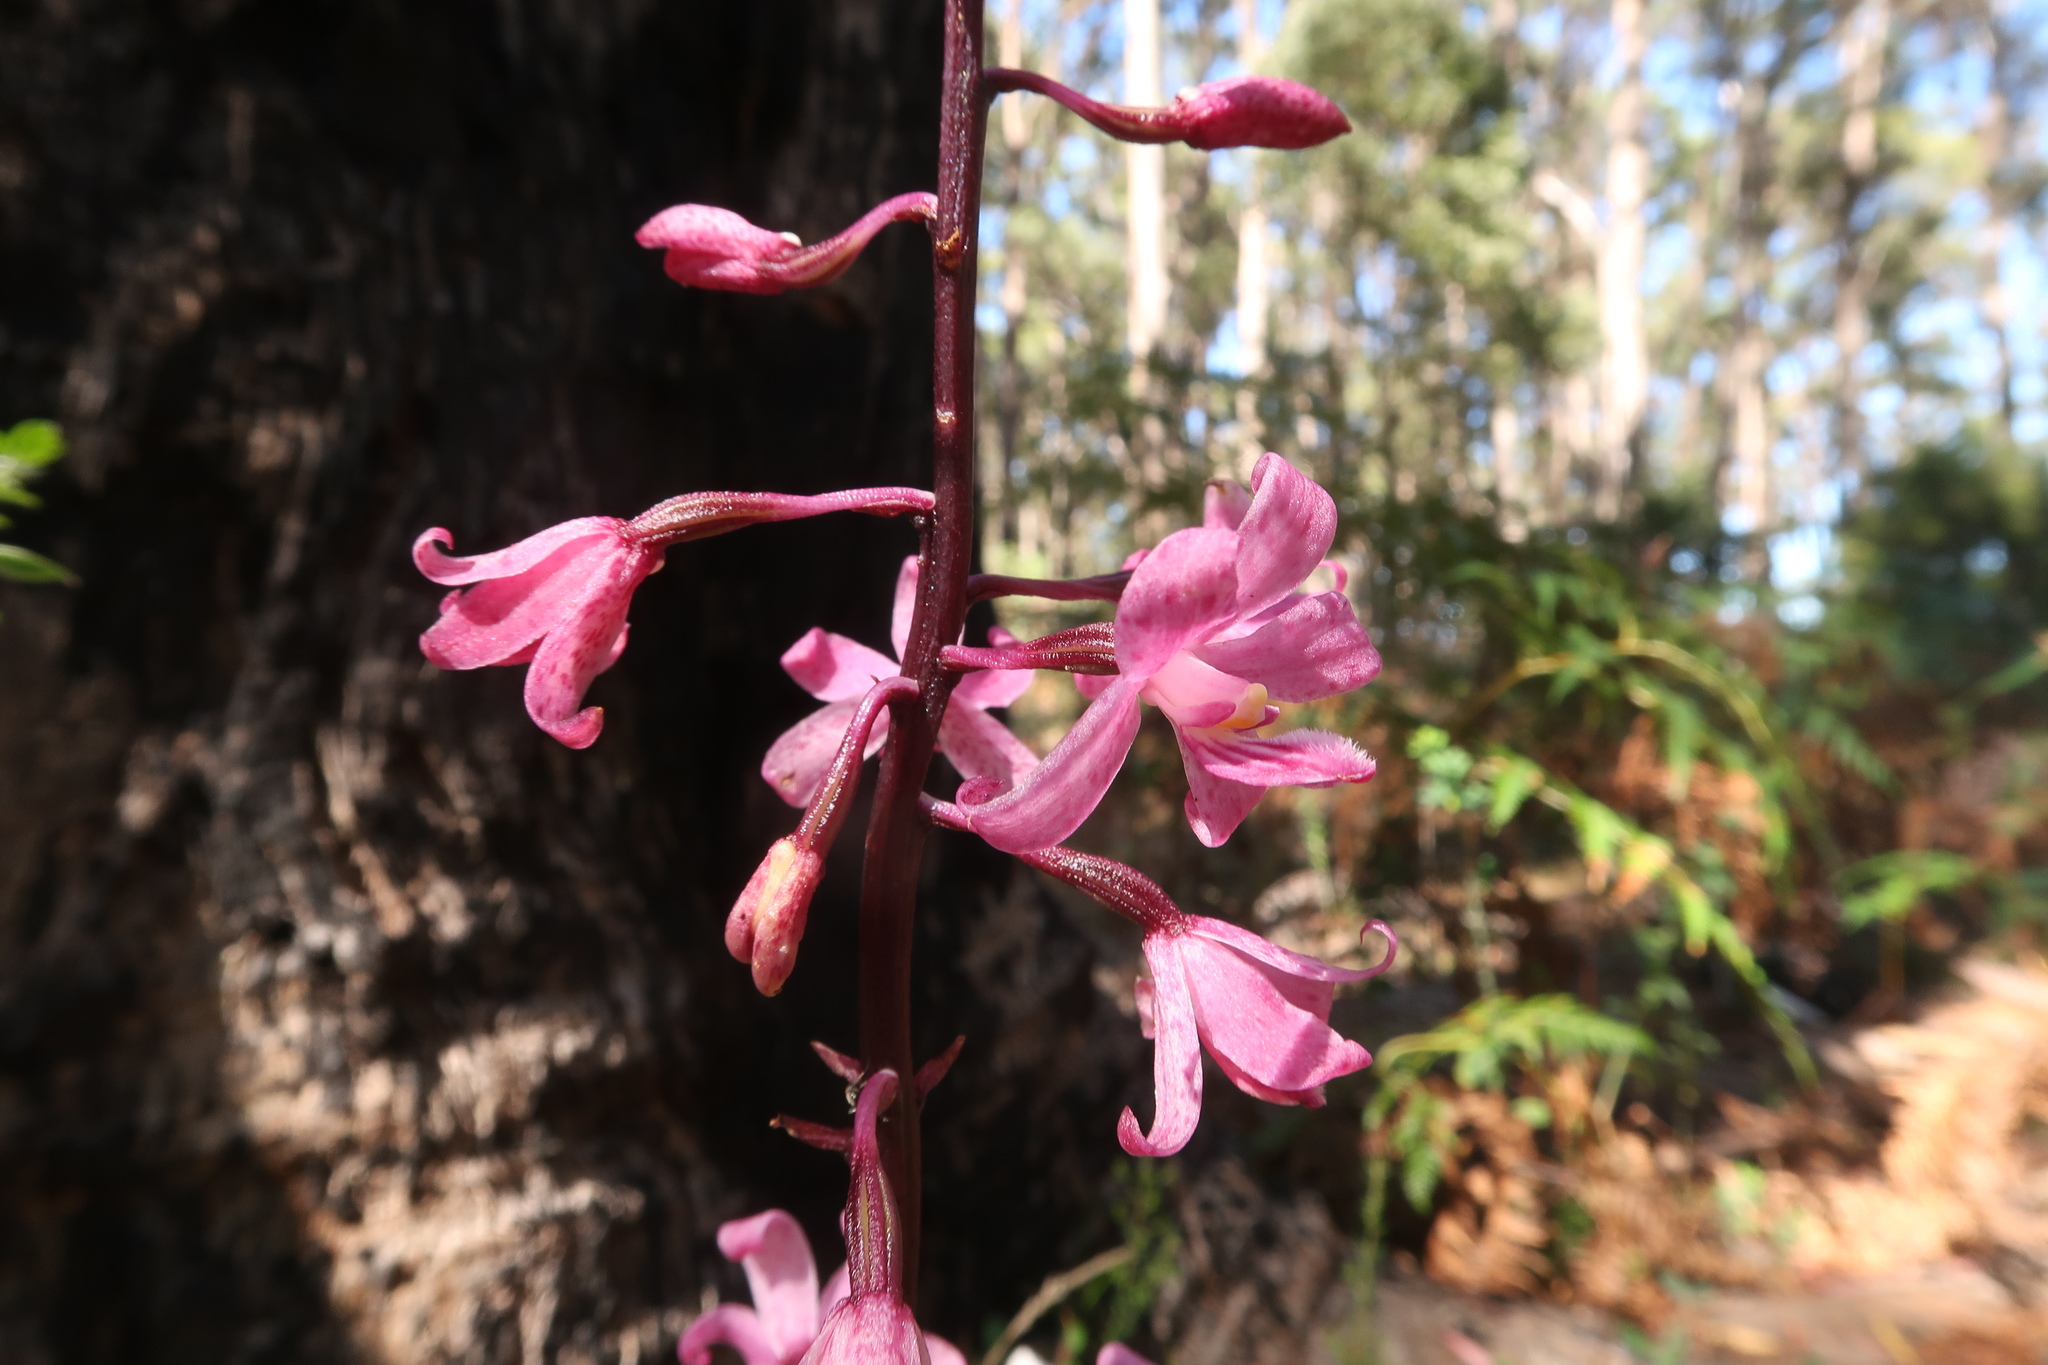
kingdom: Plantae
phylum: Tracheophyta
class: Liliopsida
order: Asparagales
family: Orchidaceae
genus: Dipodium
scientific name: Dipodium roseum
